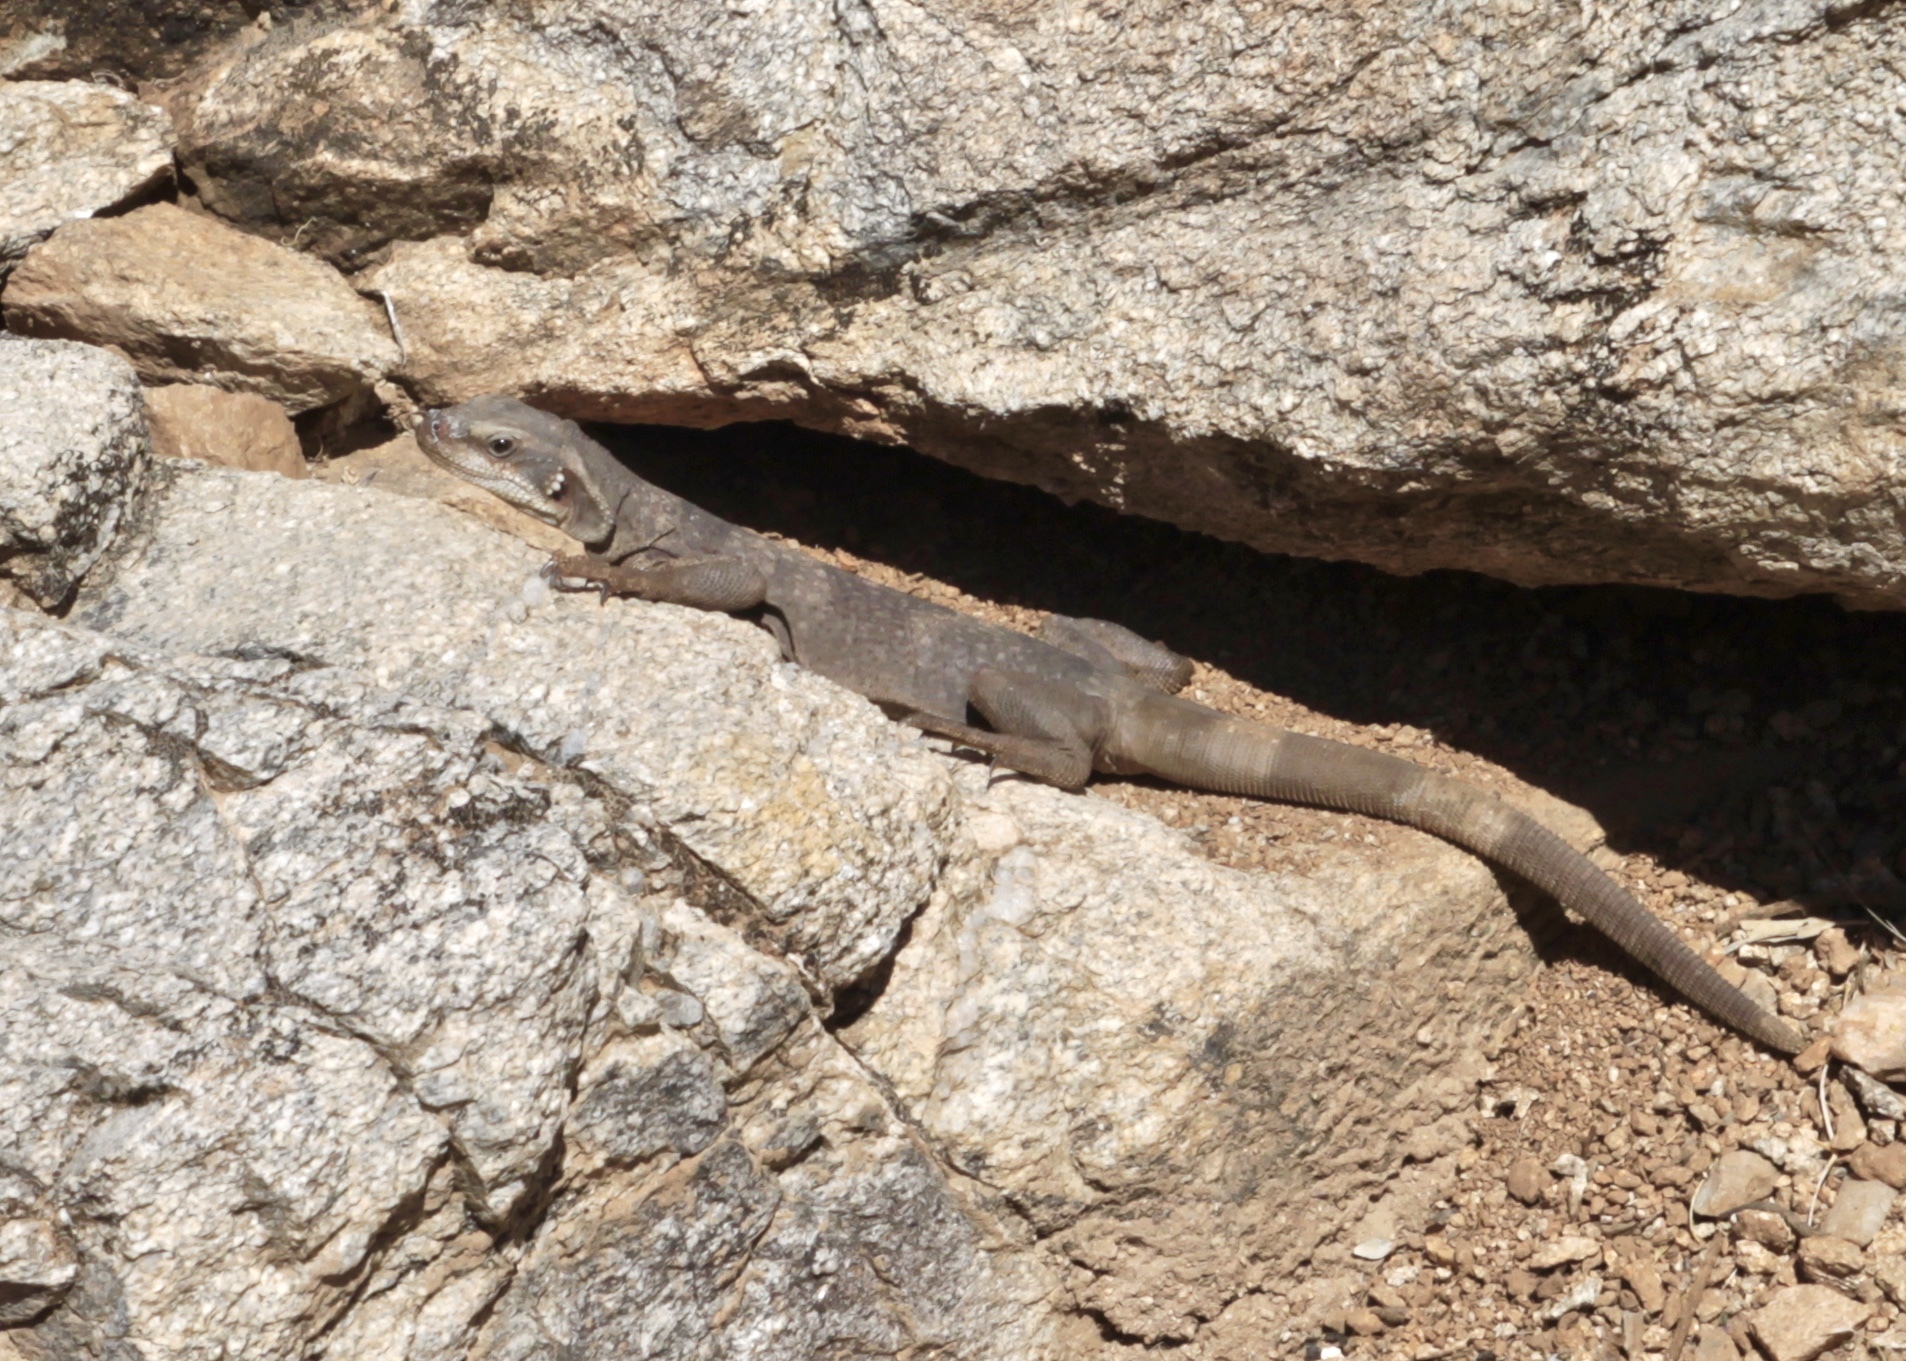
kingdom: Animalia
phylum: Chordata
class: Squamata
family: Iguanidae
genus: Sauromalus
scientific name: Sauromalus ater
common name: Northern chuckwalla
